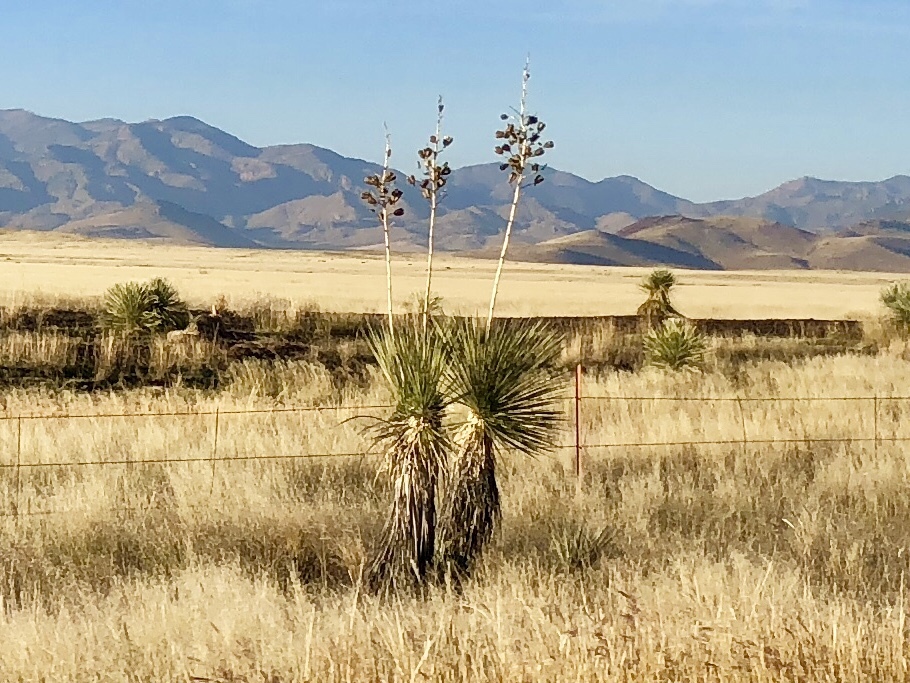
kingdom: Plantae
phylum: Tracheophyta
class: Liliopsida
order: Asparagales
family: Asparagaceae
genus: Yucca
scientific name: Yucca elata
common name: Palmella
